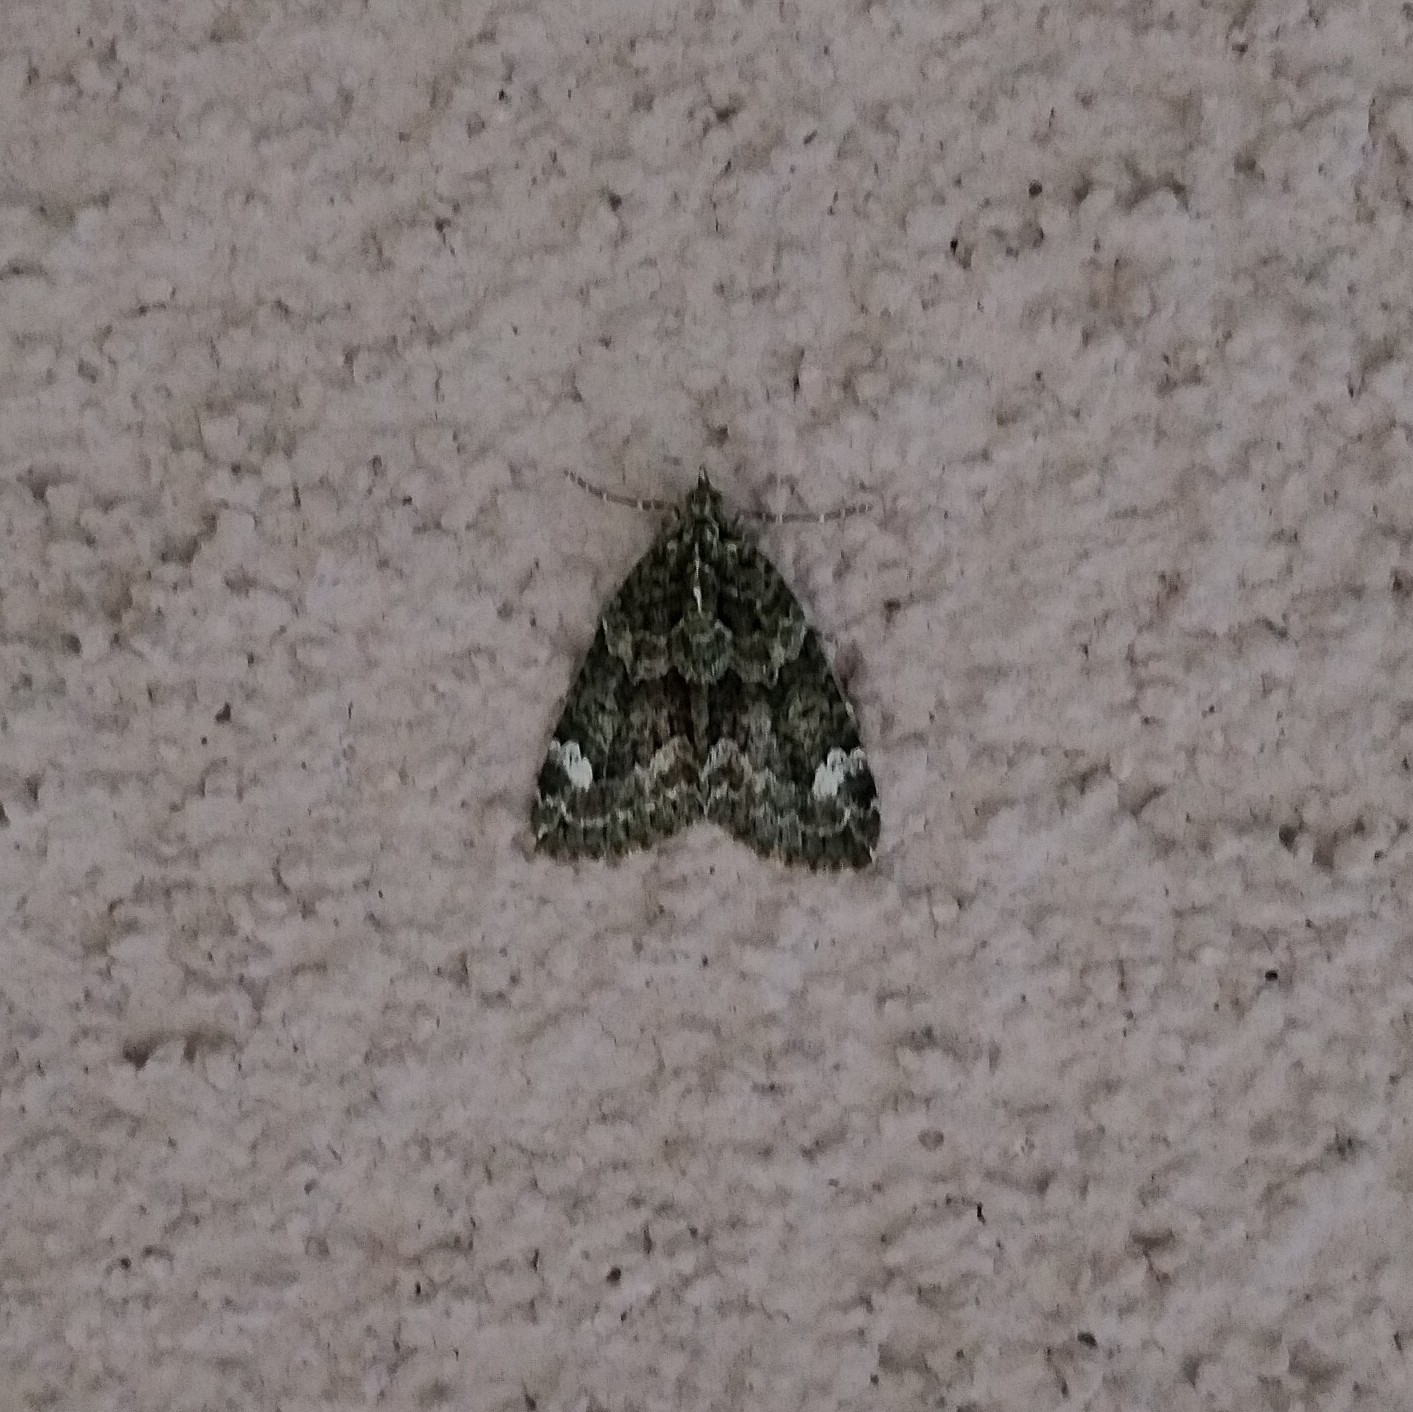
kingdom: Animalia
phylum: Arthropoda
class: Insecta
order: Lepidoptera
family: Geometridae
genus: Chloroclysta
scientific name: Chloroclysta siterata
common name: Red-green carpet
